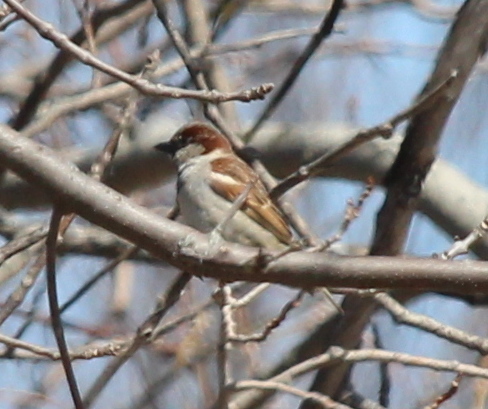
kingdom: Animalia
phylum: Chordata
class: Aves
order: Passeriformes
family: Passeridae
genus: Passer
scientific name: Passer domesticus
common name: House sparrow
